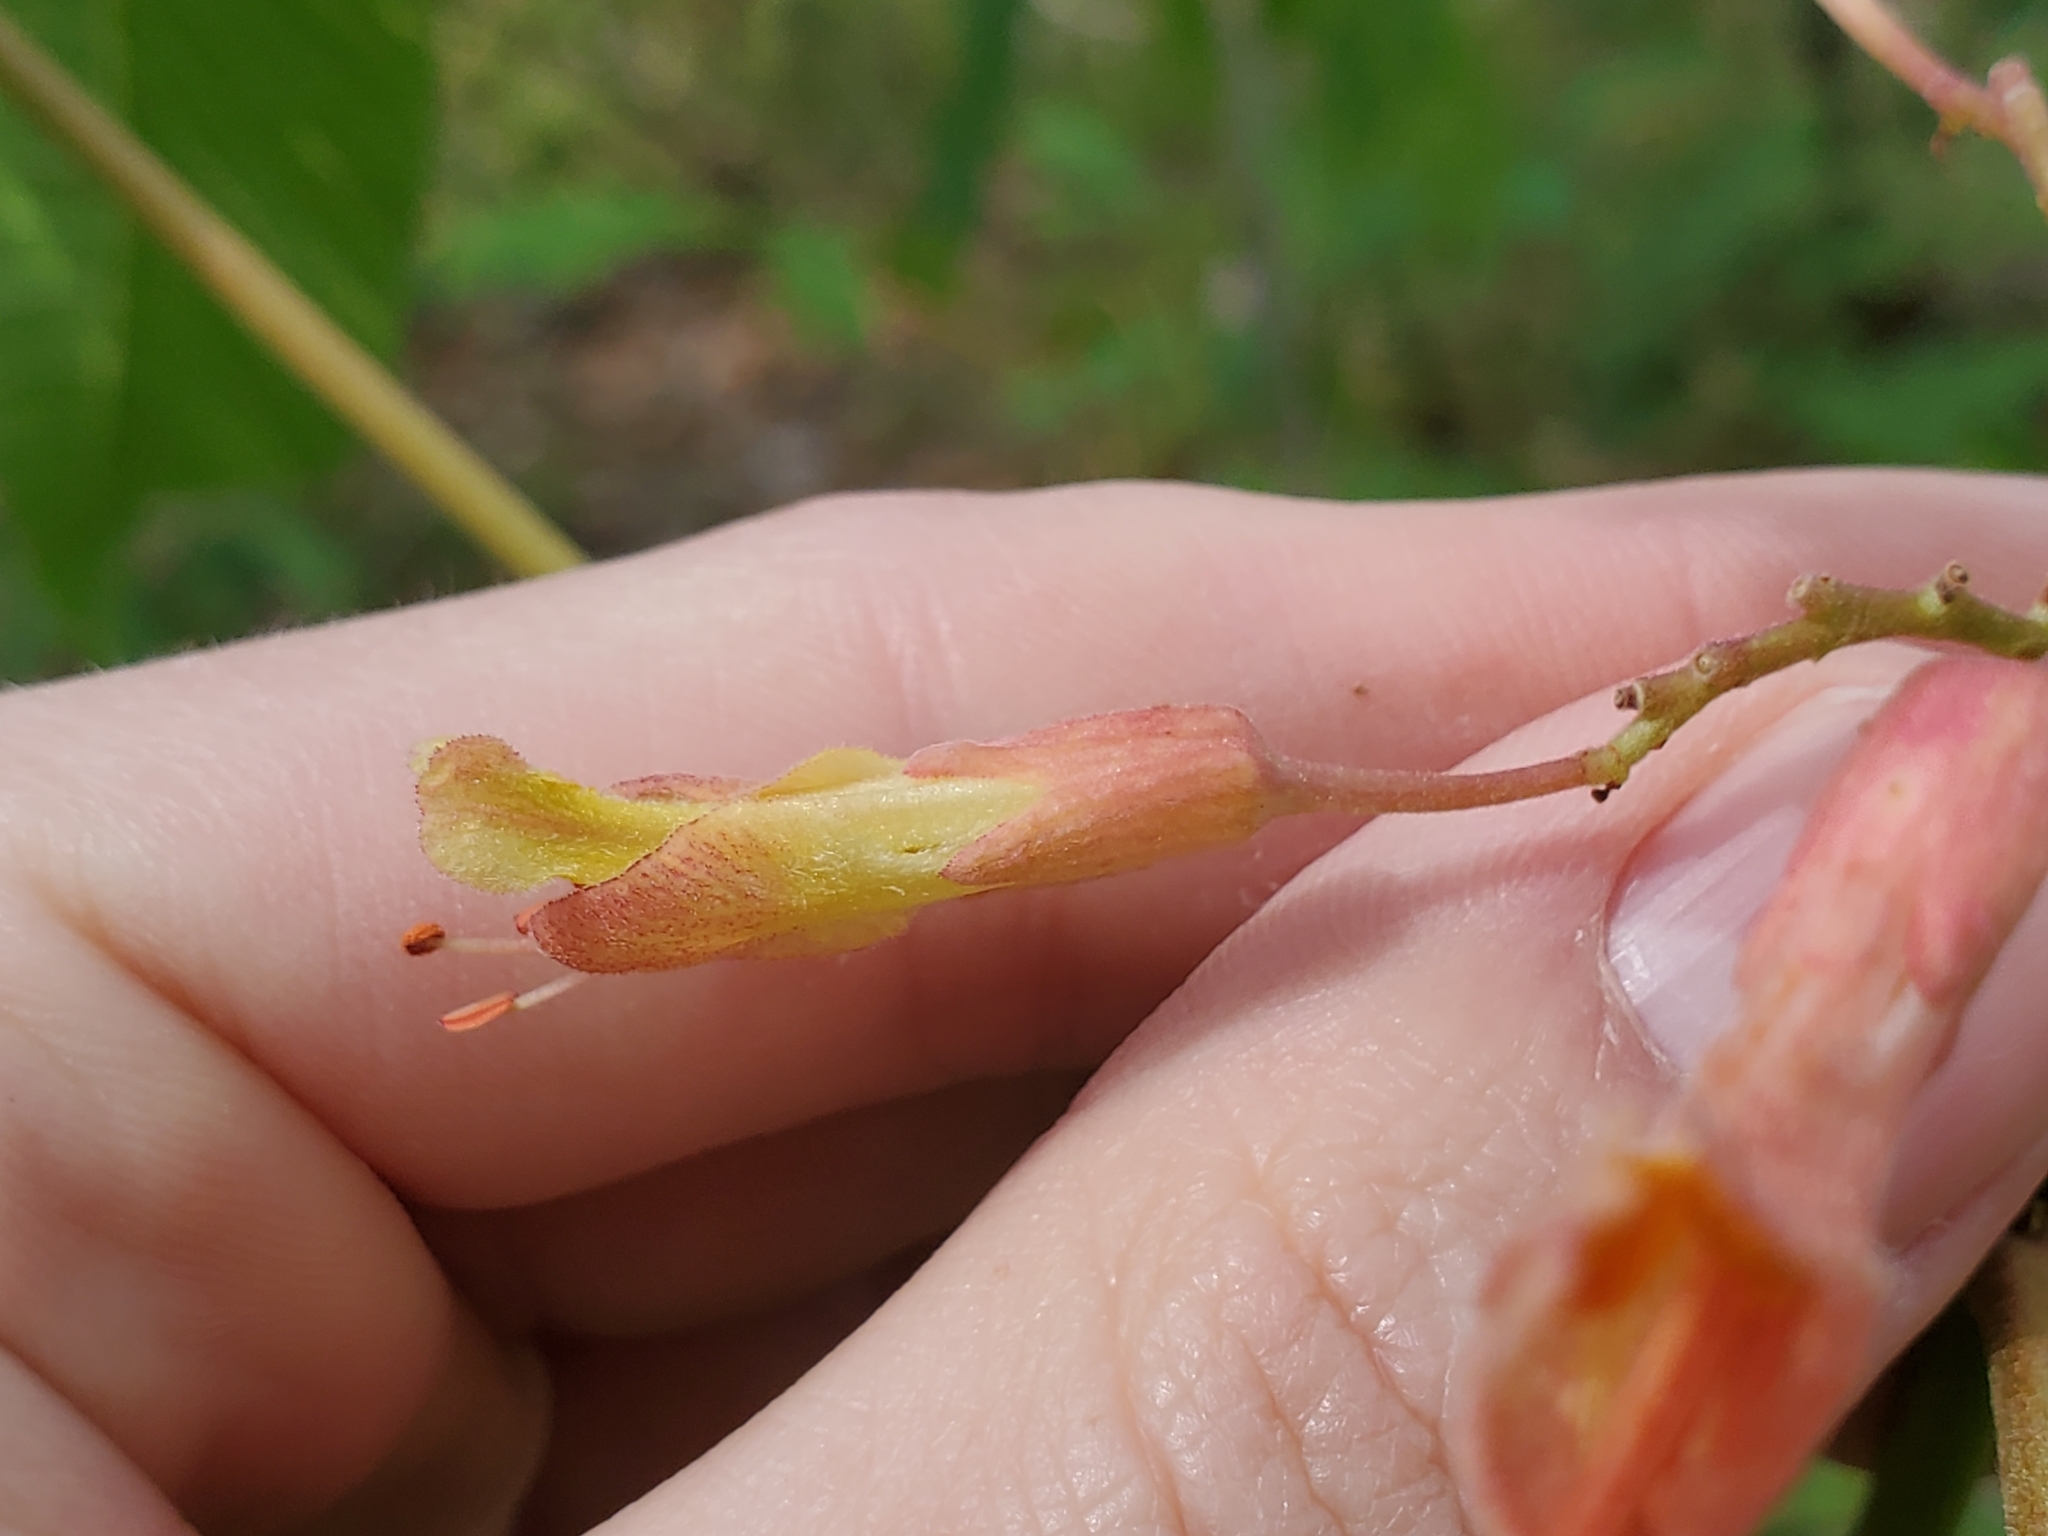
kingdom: Plantae
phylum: Tracheophyta
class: Magnoliopsida
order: Sapindales
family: Sapindaceae
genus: Aesculus
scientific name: Aesculus bushii
